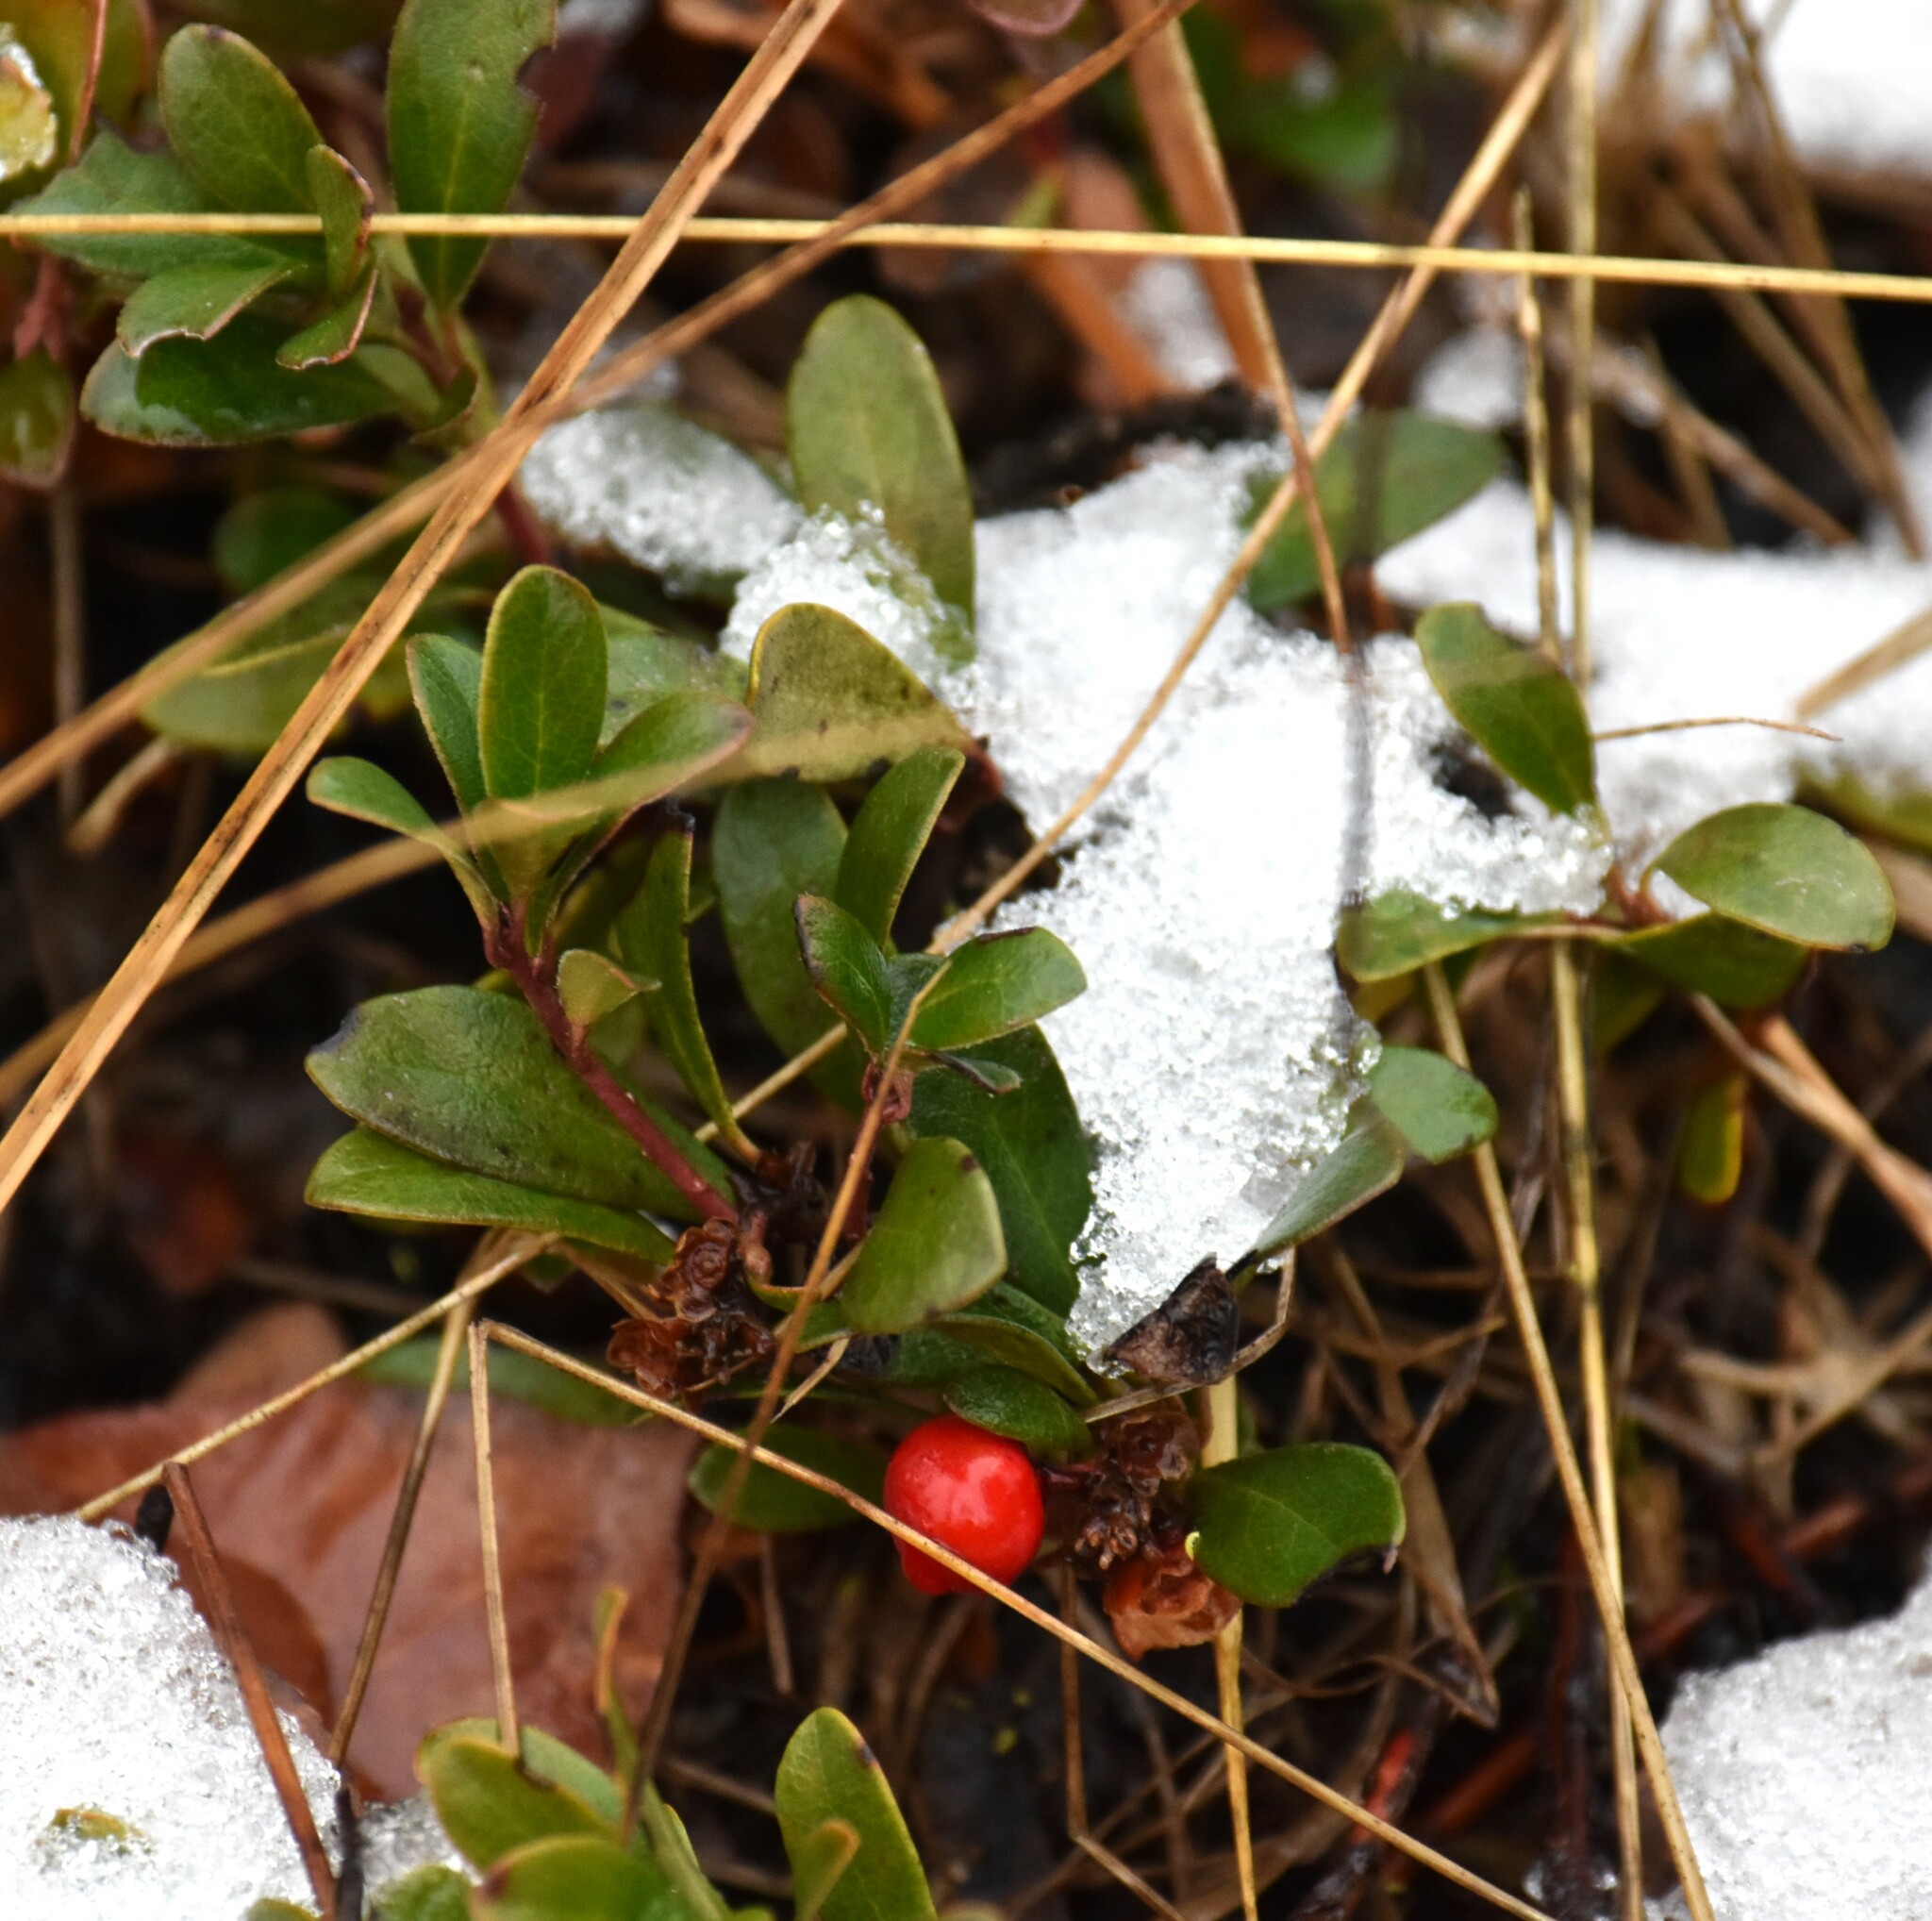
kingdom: Plantae
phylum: Tracheophyta
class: Magnoliopsida
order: Ericales
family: Ericaceae
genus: Arctostaphylos
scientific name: Arctostaphylos uva-ursi
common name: Bearberry
